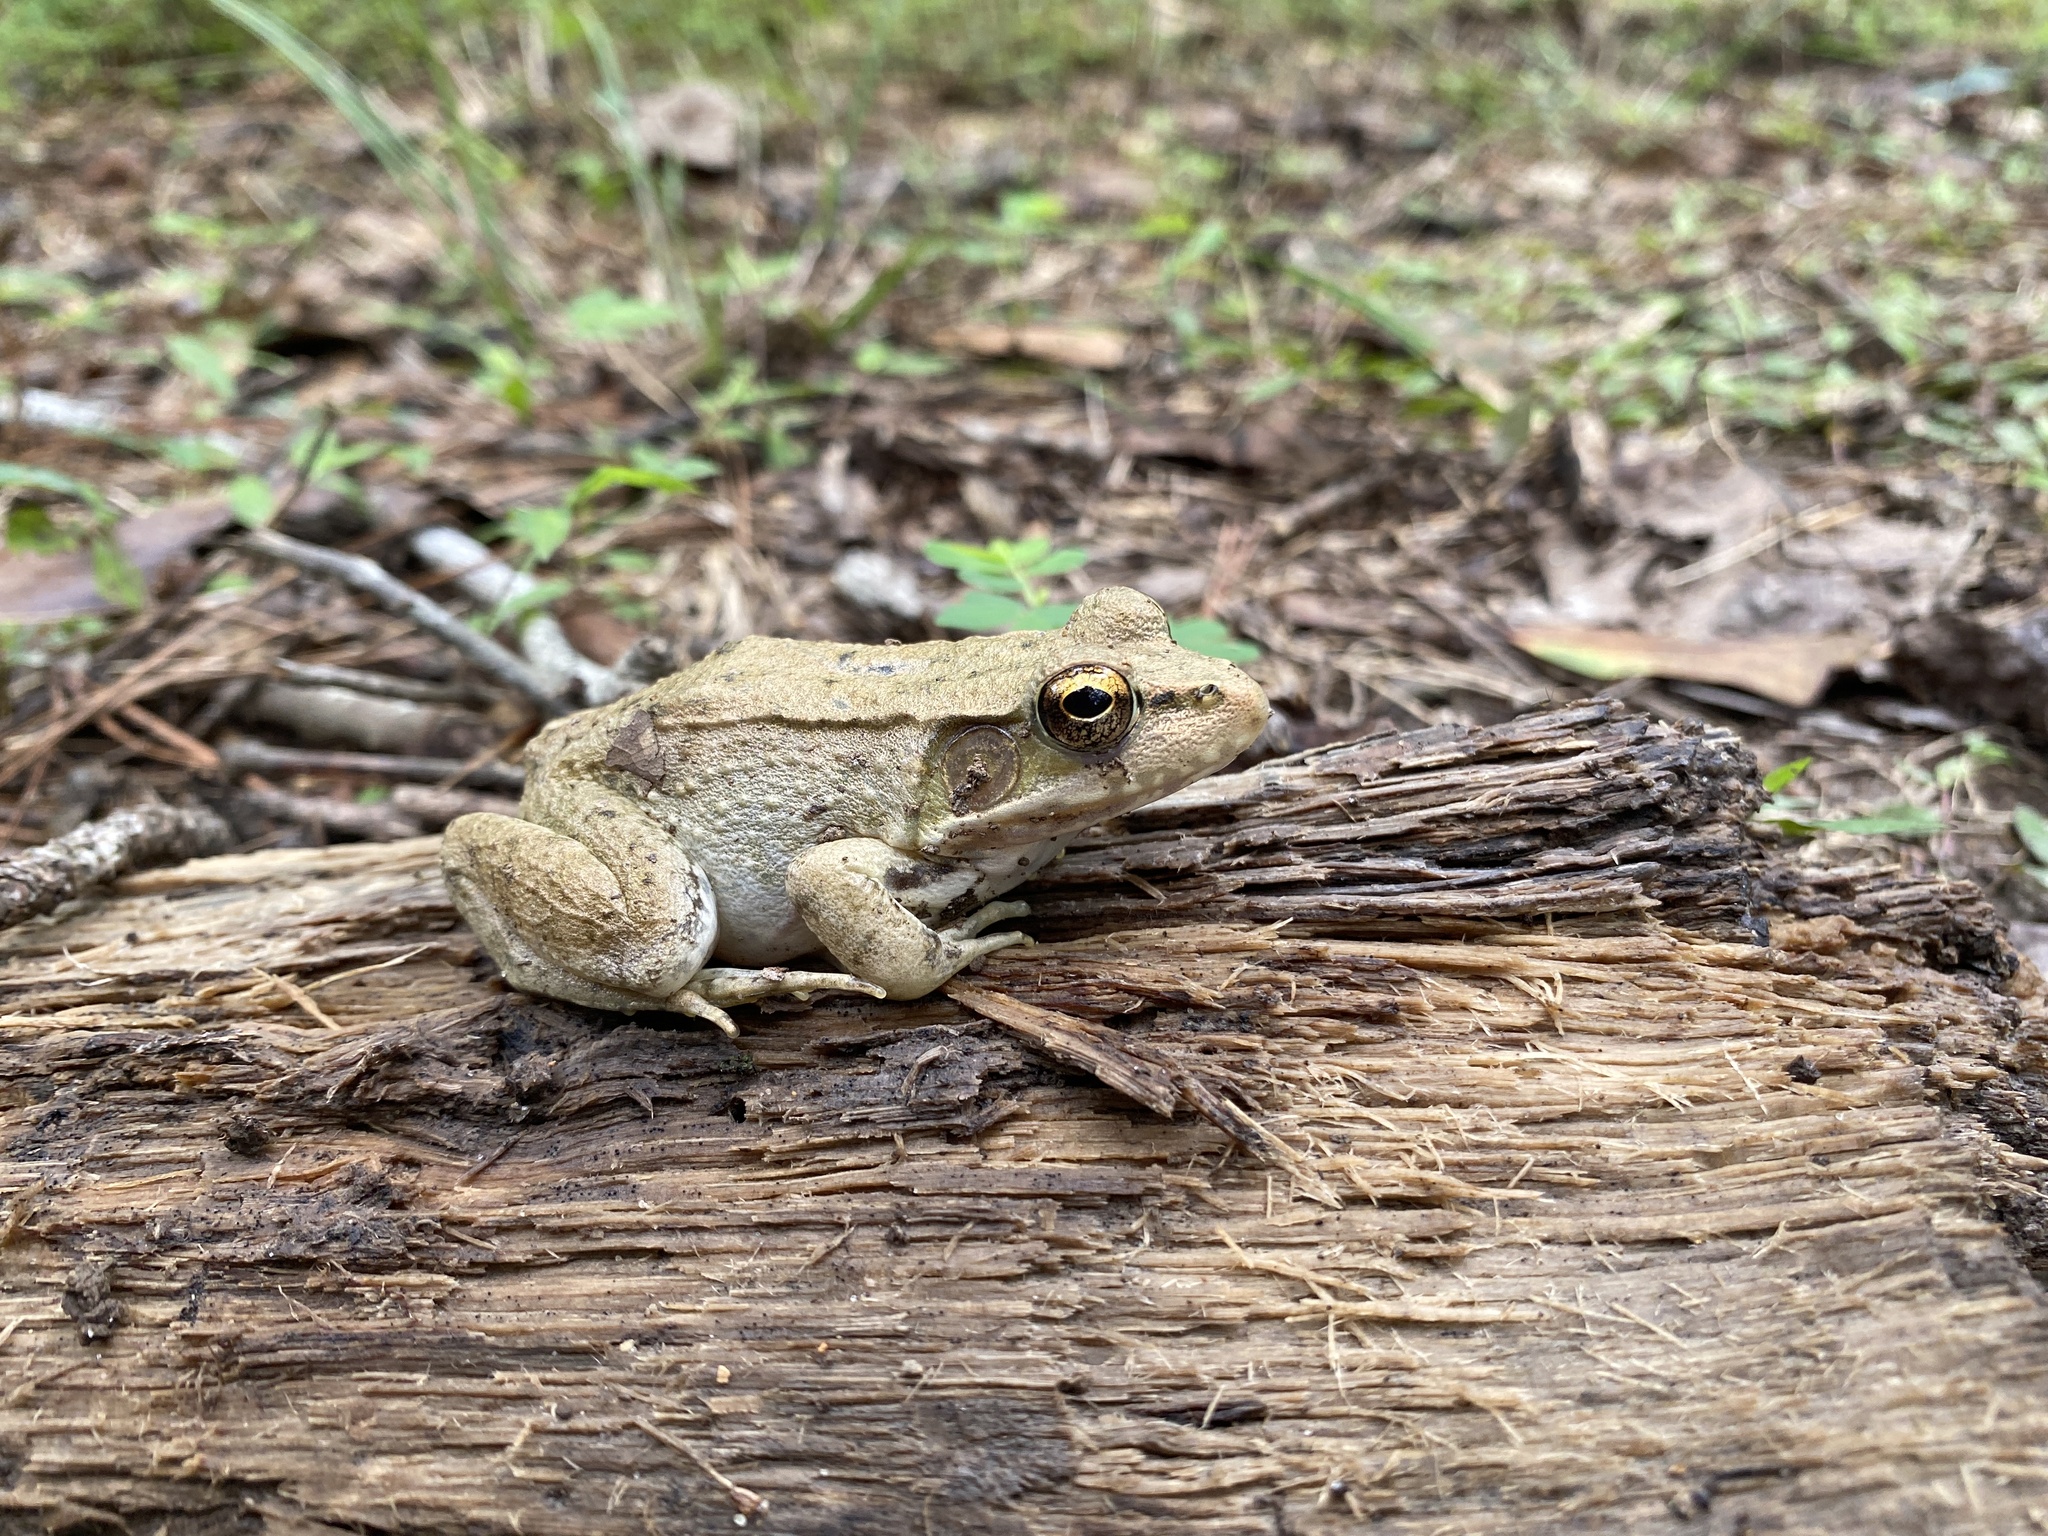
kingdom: Animalia
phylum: Chordata
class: Amphibia
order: Anura
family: Ranidae
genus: Lithobates
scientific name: Lithobates clamitans
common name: Green frog
